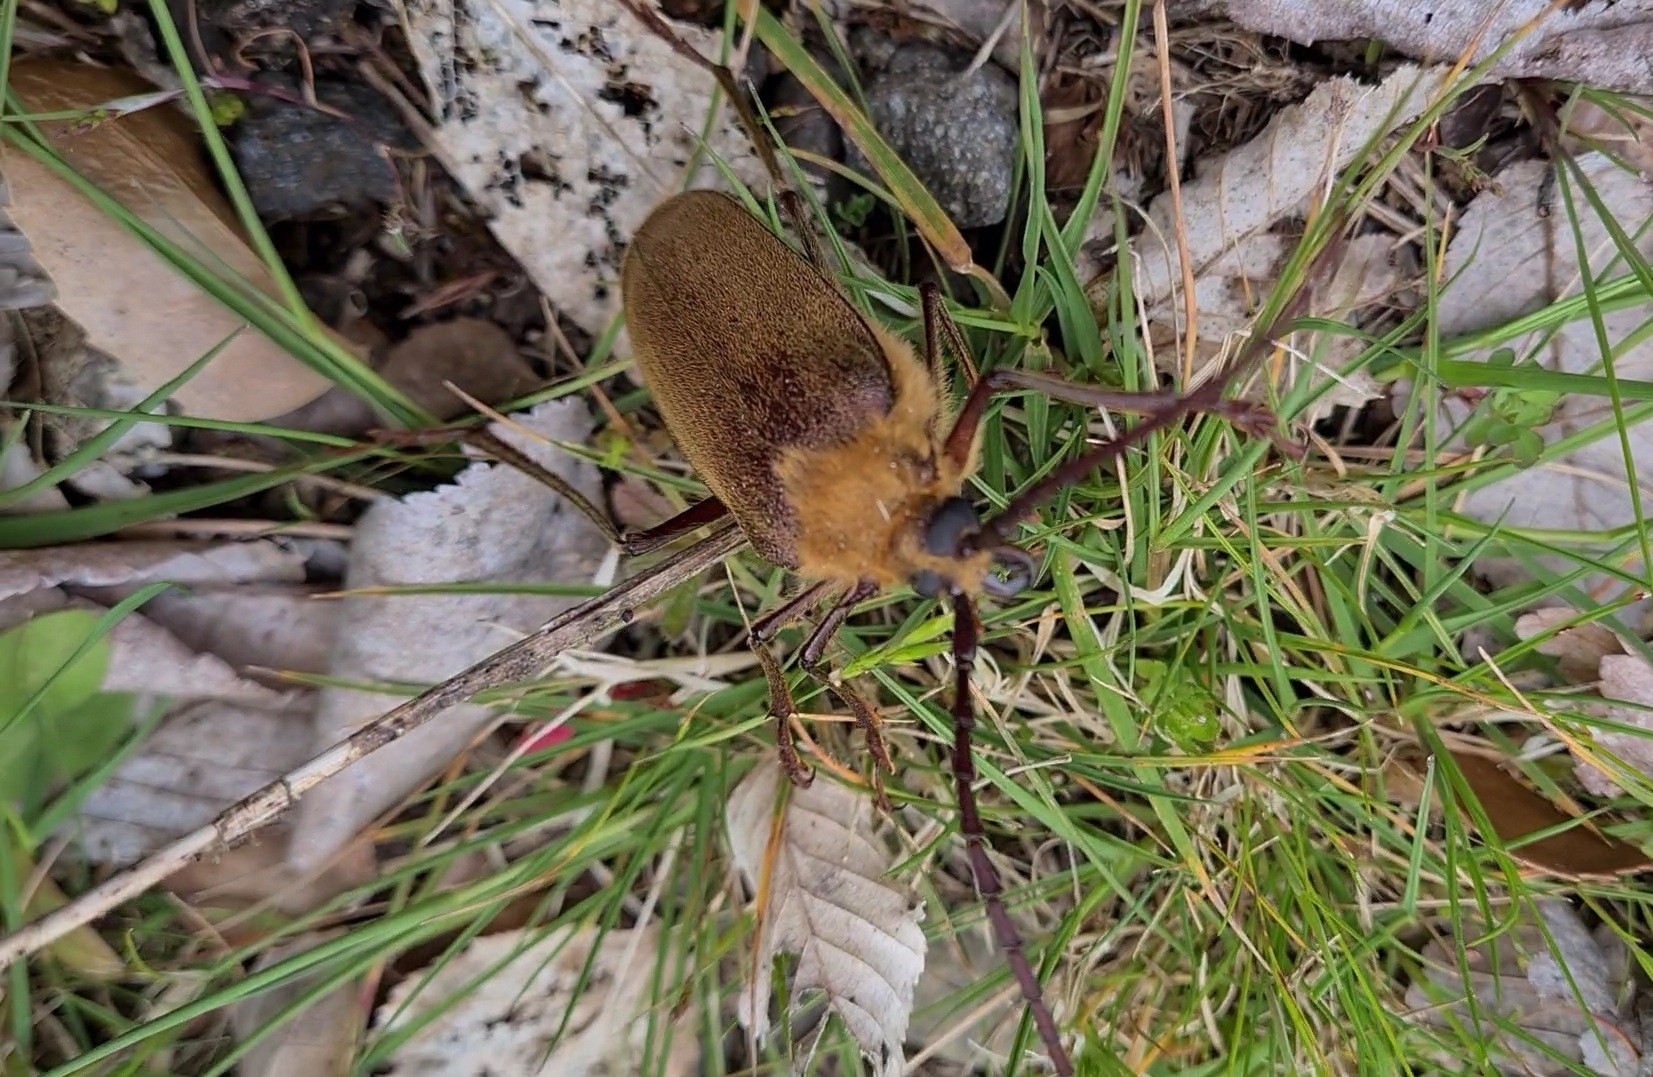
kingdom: Animalia
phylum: Arthropoda
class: Insecta
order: Coleoptera
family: Cerambycidae
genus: Acanthinodera
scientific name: Acanthinodera cumingii
